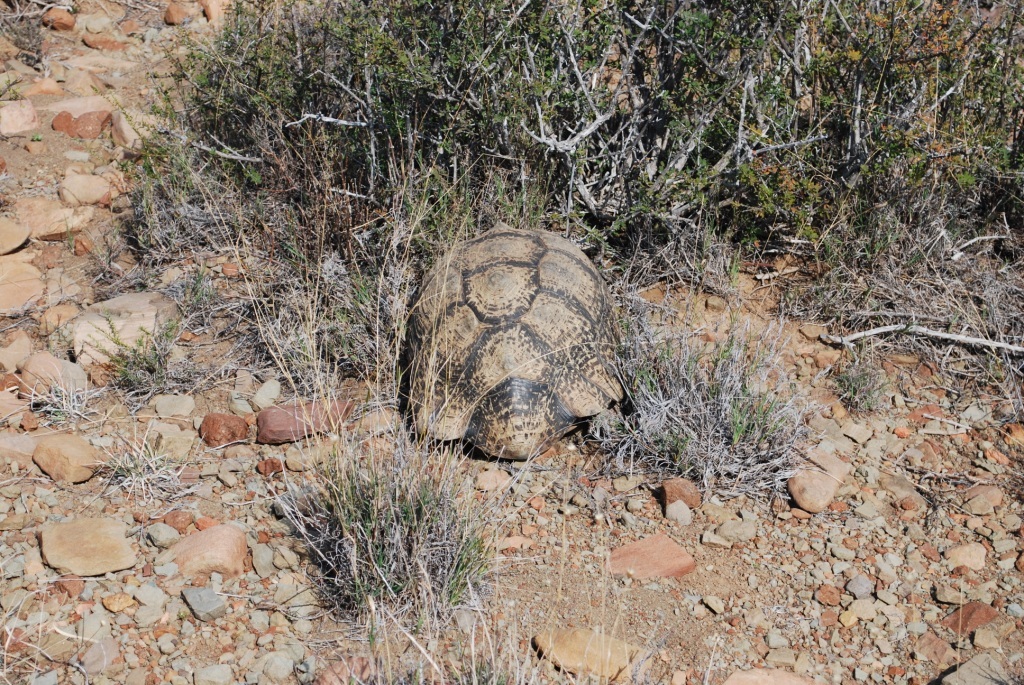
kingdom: Animalia
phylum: Chordata
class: Testudines
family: Testudinidae
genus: Stigmochelys
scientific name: Stigmochelys pardalis
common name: Leopard tortoise
